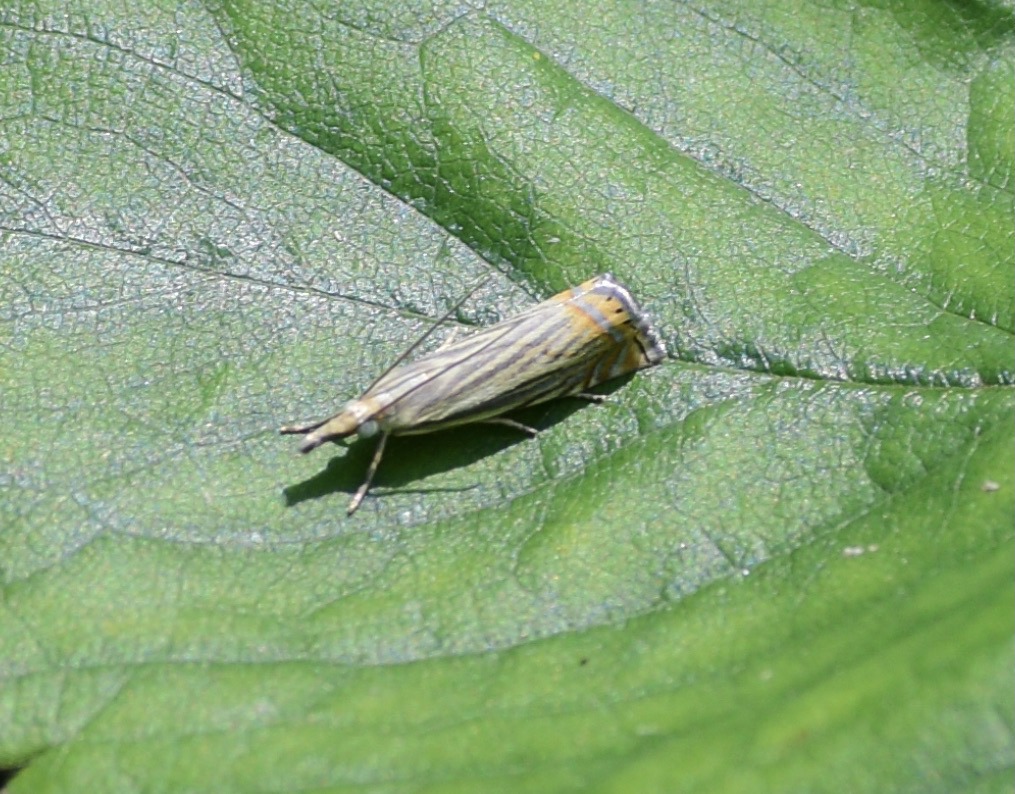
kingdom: Animalia
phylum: Arthropoda
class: Insecta
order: Lepidoptera
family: Crambidae
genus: Chrysoteuchia
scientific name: Chrysoteuchia topiarius
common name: Topiary grass-veneer
